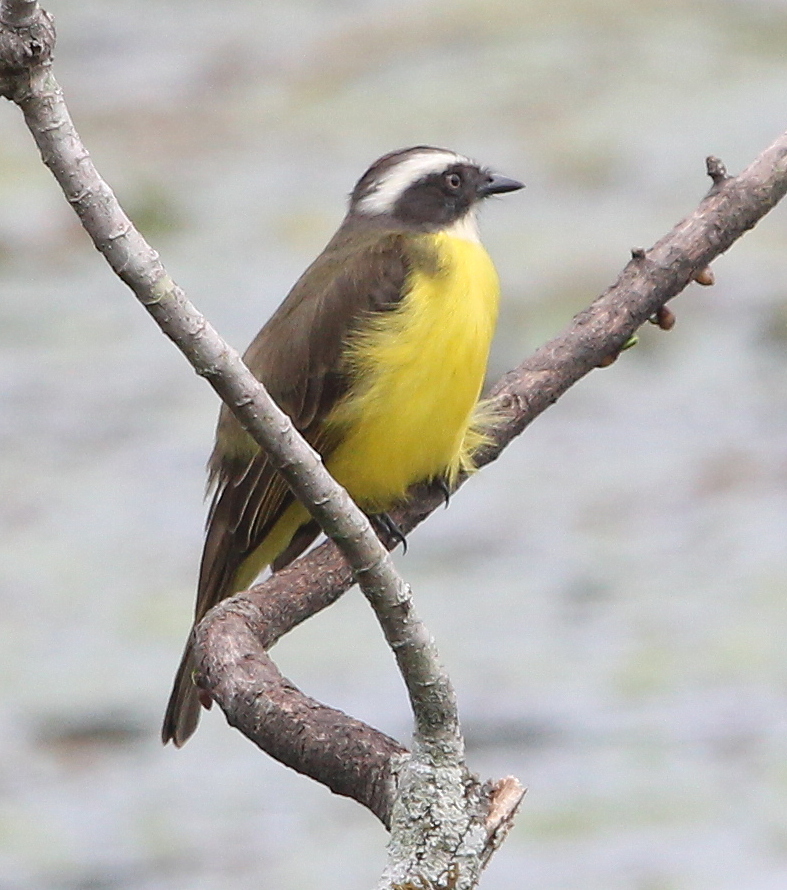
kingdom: Animalia
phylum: Chordata
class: Aves
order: Passeriformes
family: Tyrannidae
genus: Myiozetetes
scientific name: Myiozetetes similis
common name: Social flycatcher
